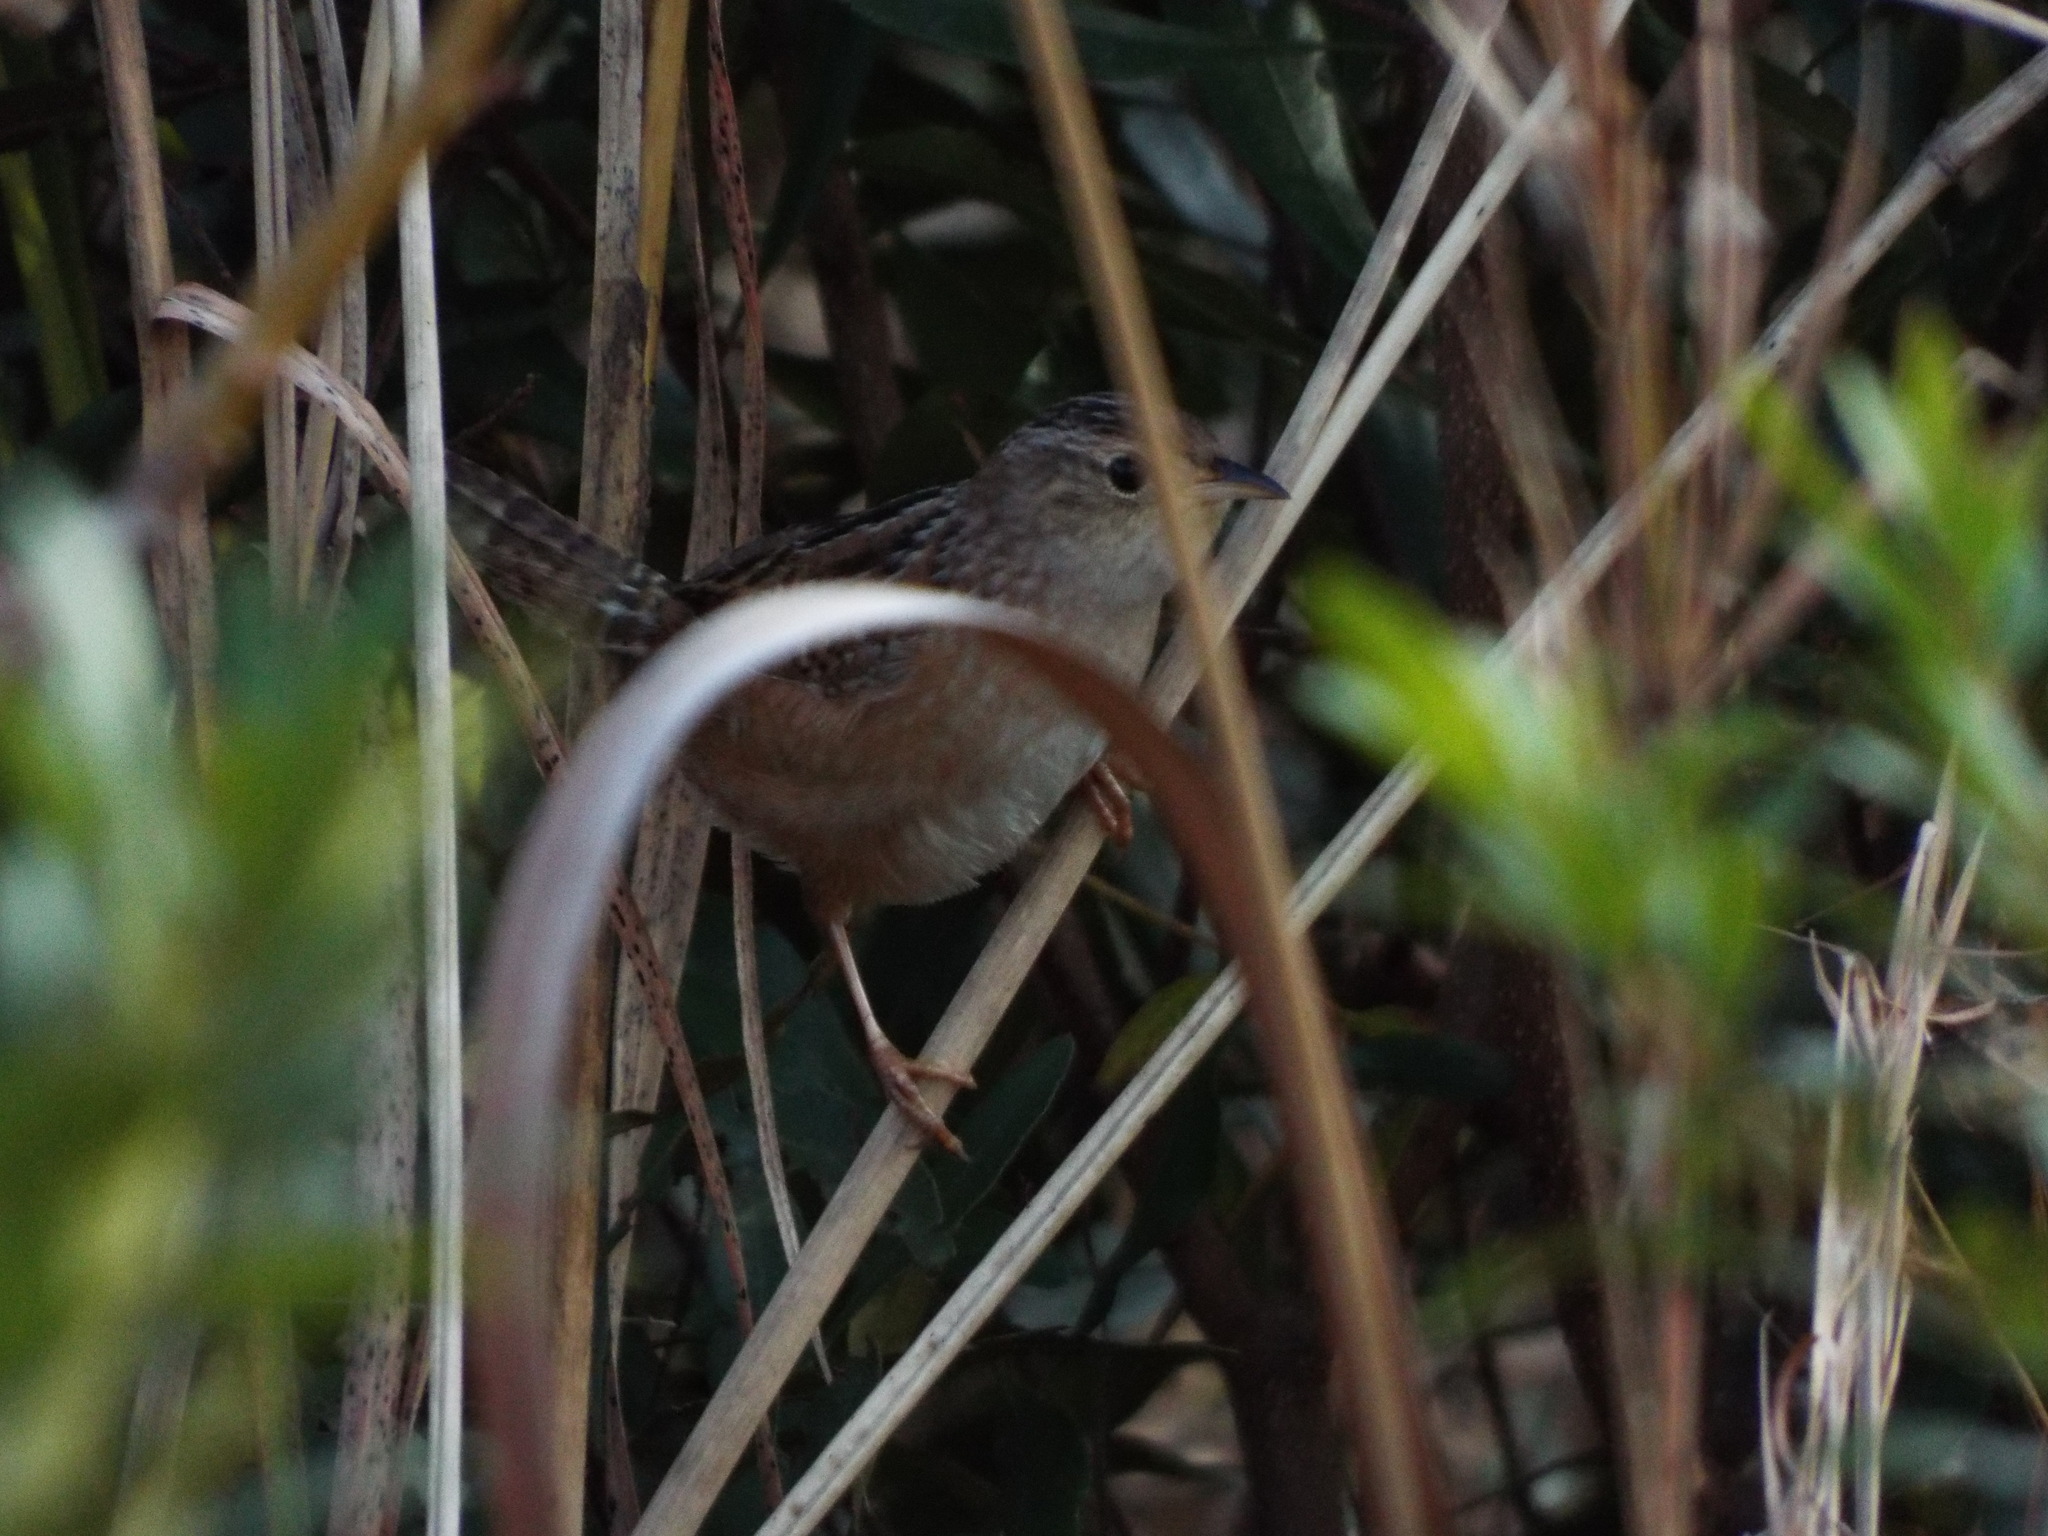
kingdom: Animalia
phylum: Chordata
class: Aves
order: Passeriformes
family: Troglodytidae
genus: Cistothorus
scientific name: Cistothorus platensis
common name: Sedge wren
